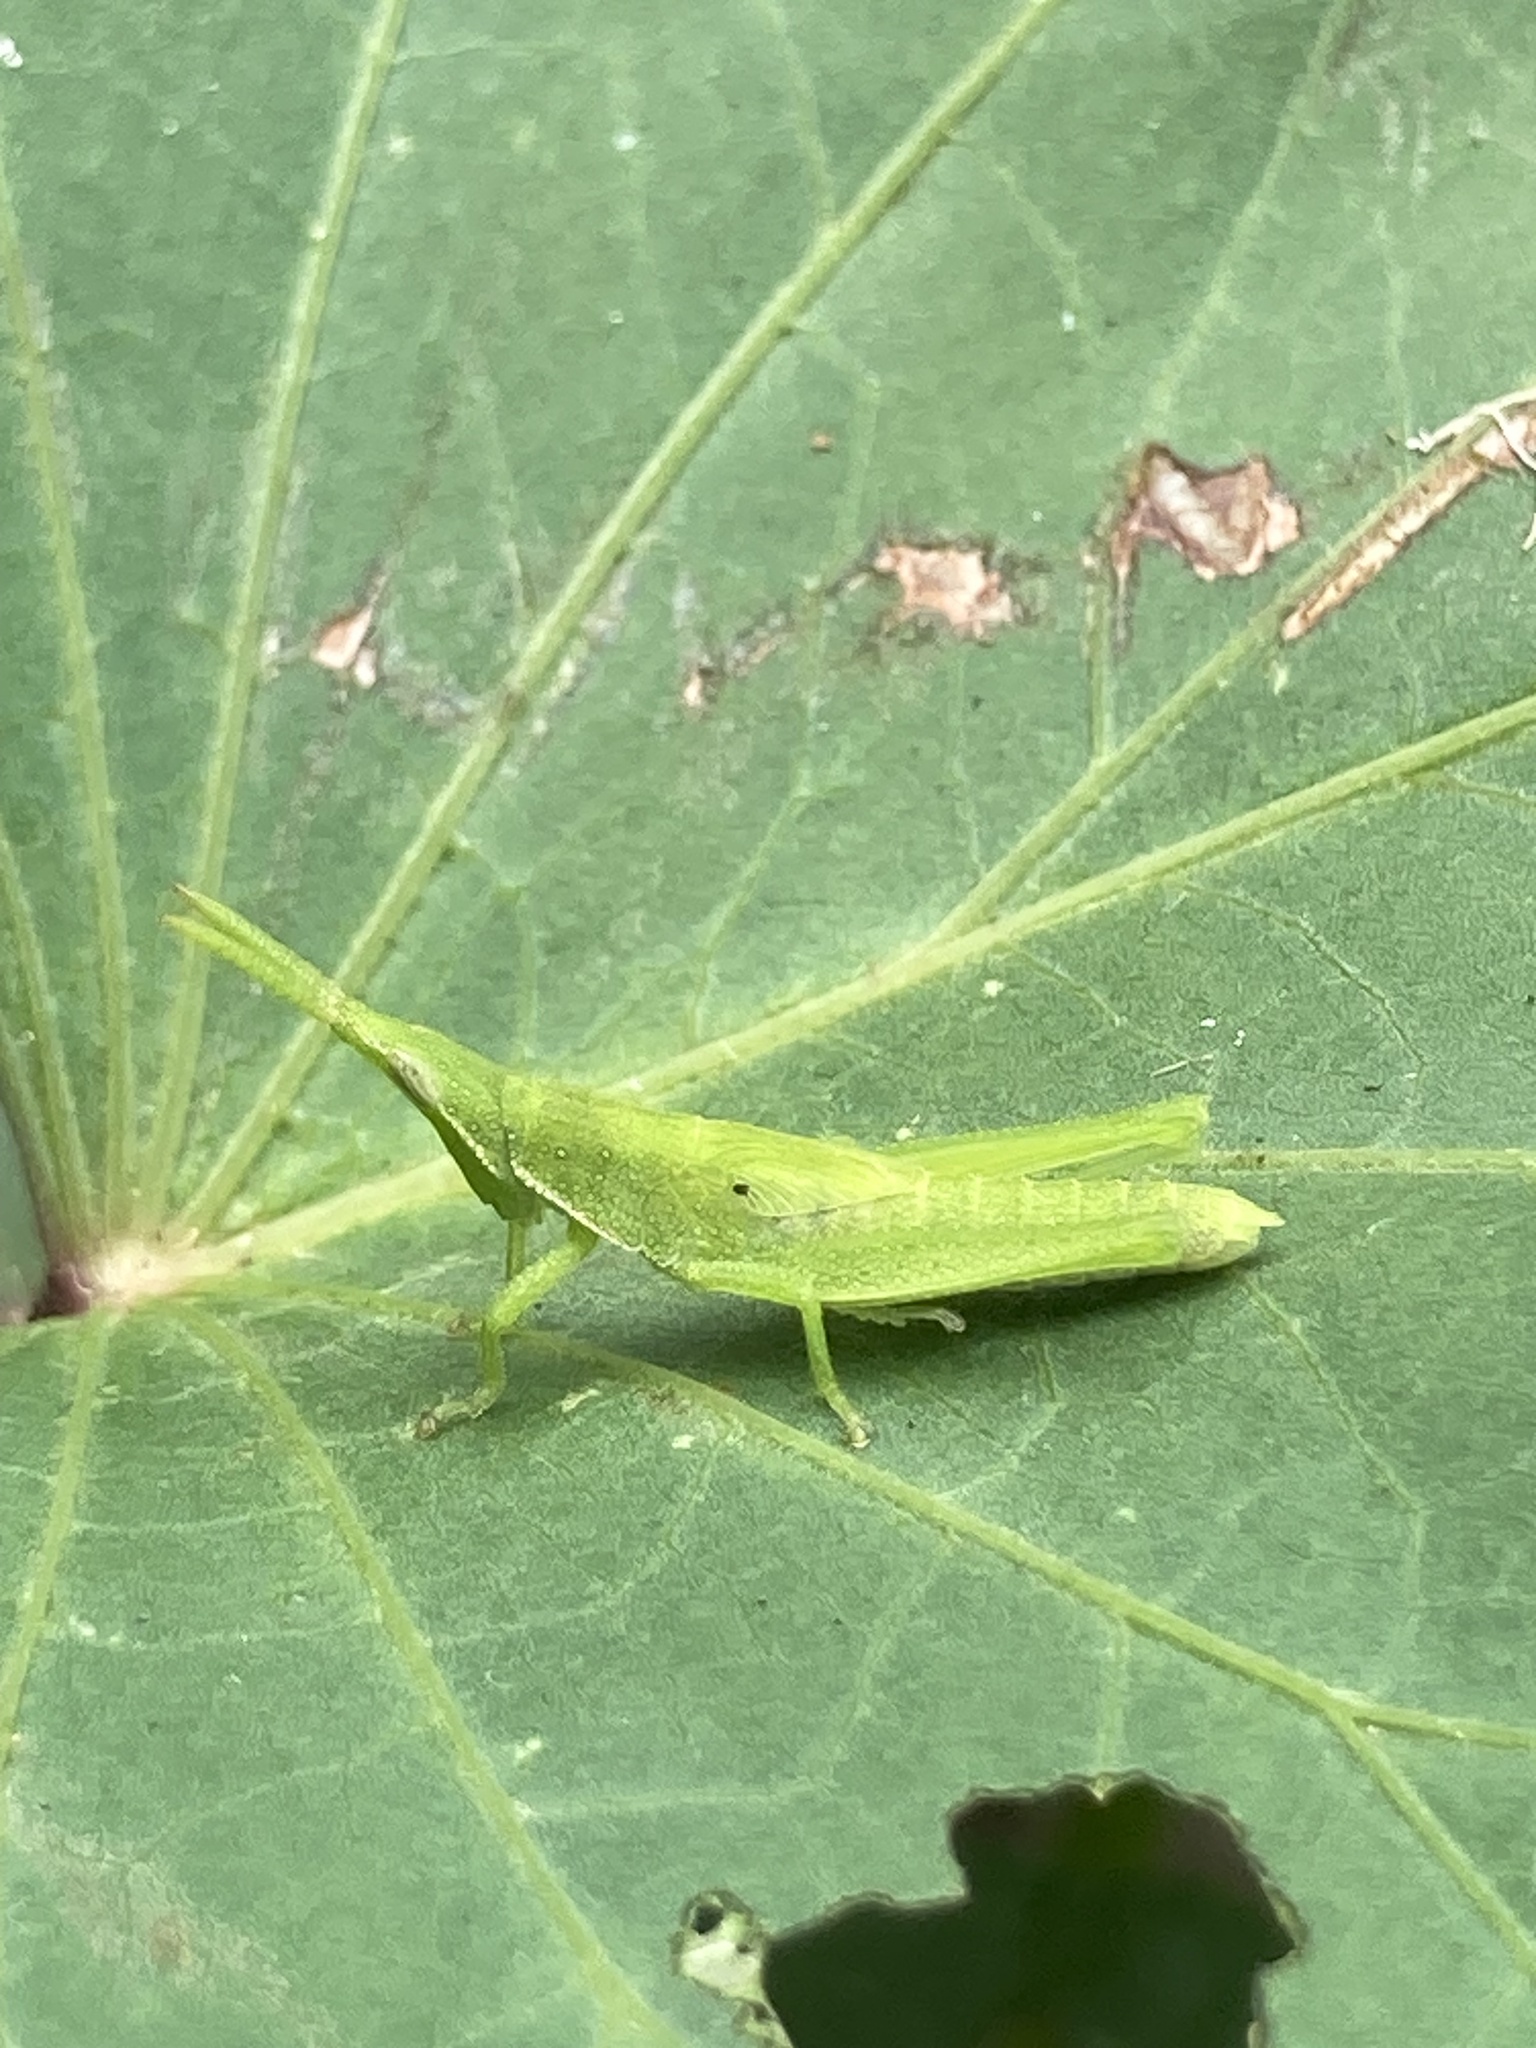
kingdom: Animalia
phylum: Arthropoda
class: Insecta
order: Orthoptera
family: Pyrgomorphidae
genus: Atractomorpha
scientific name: Atractomorpha australis
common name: Australian grass pyrgomorph
